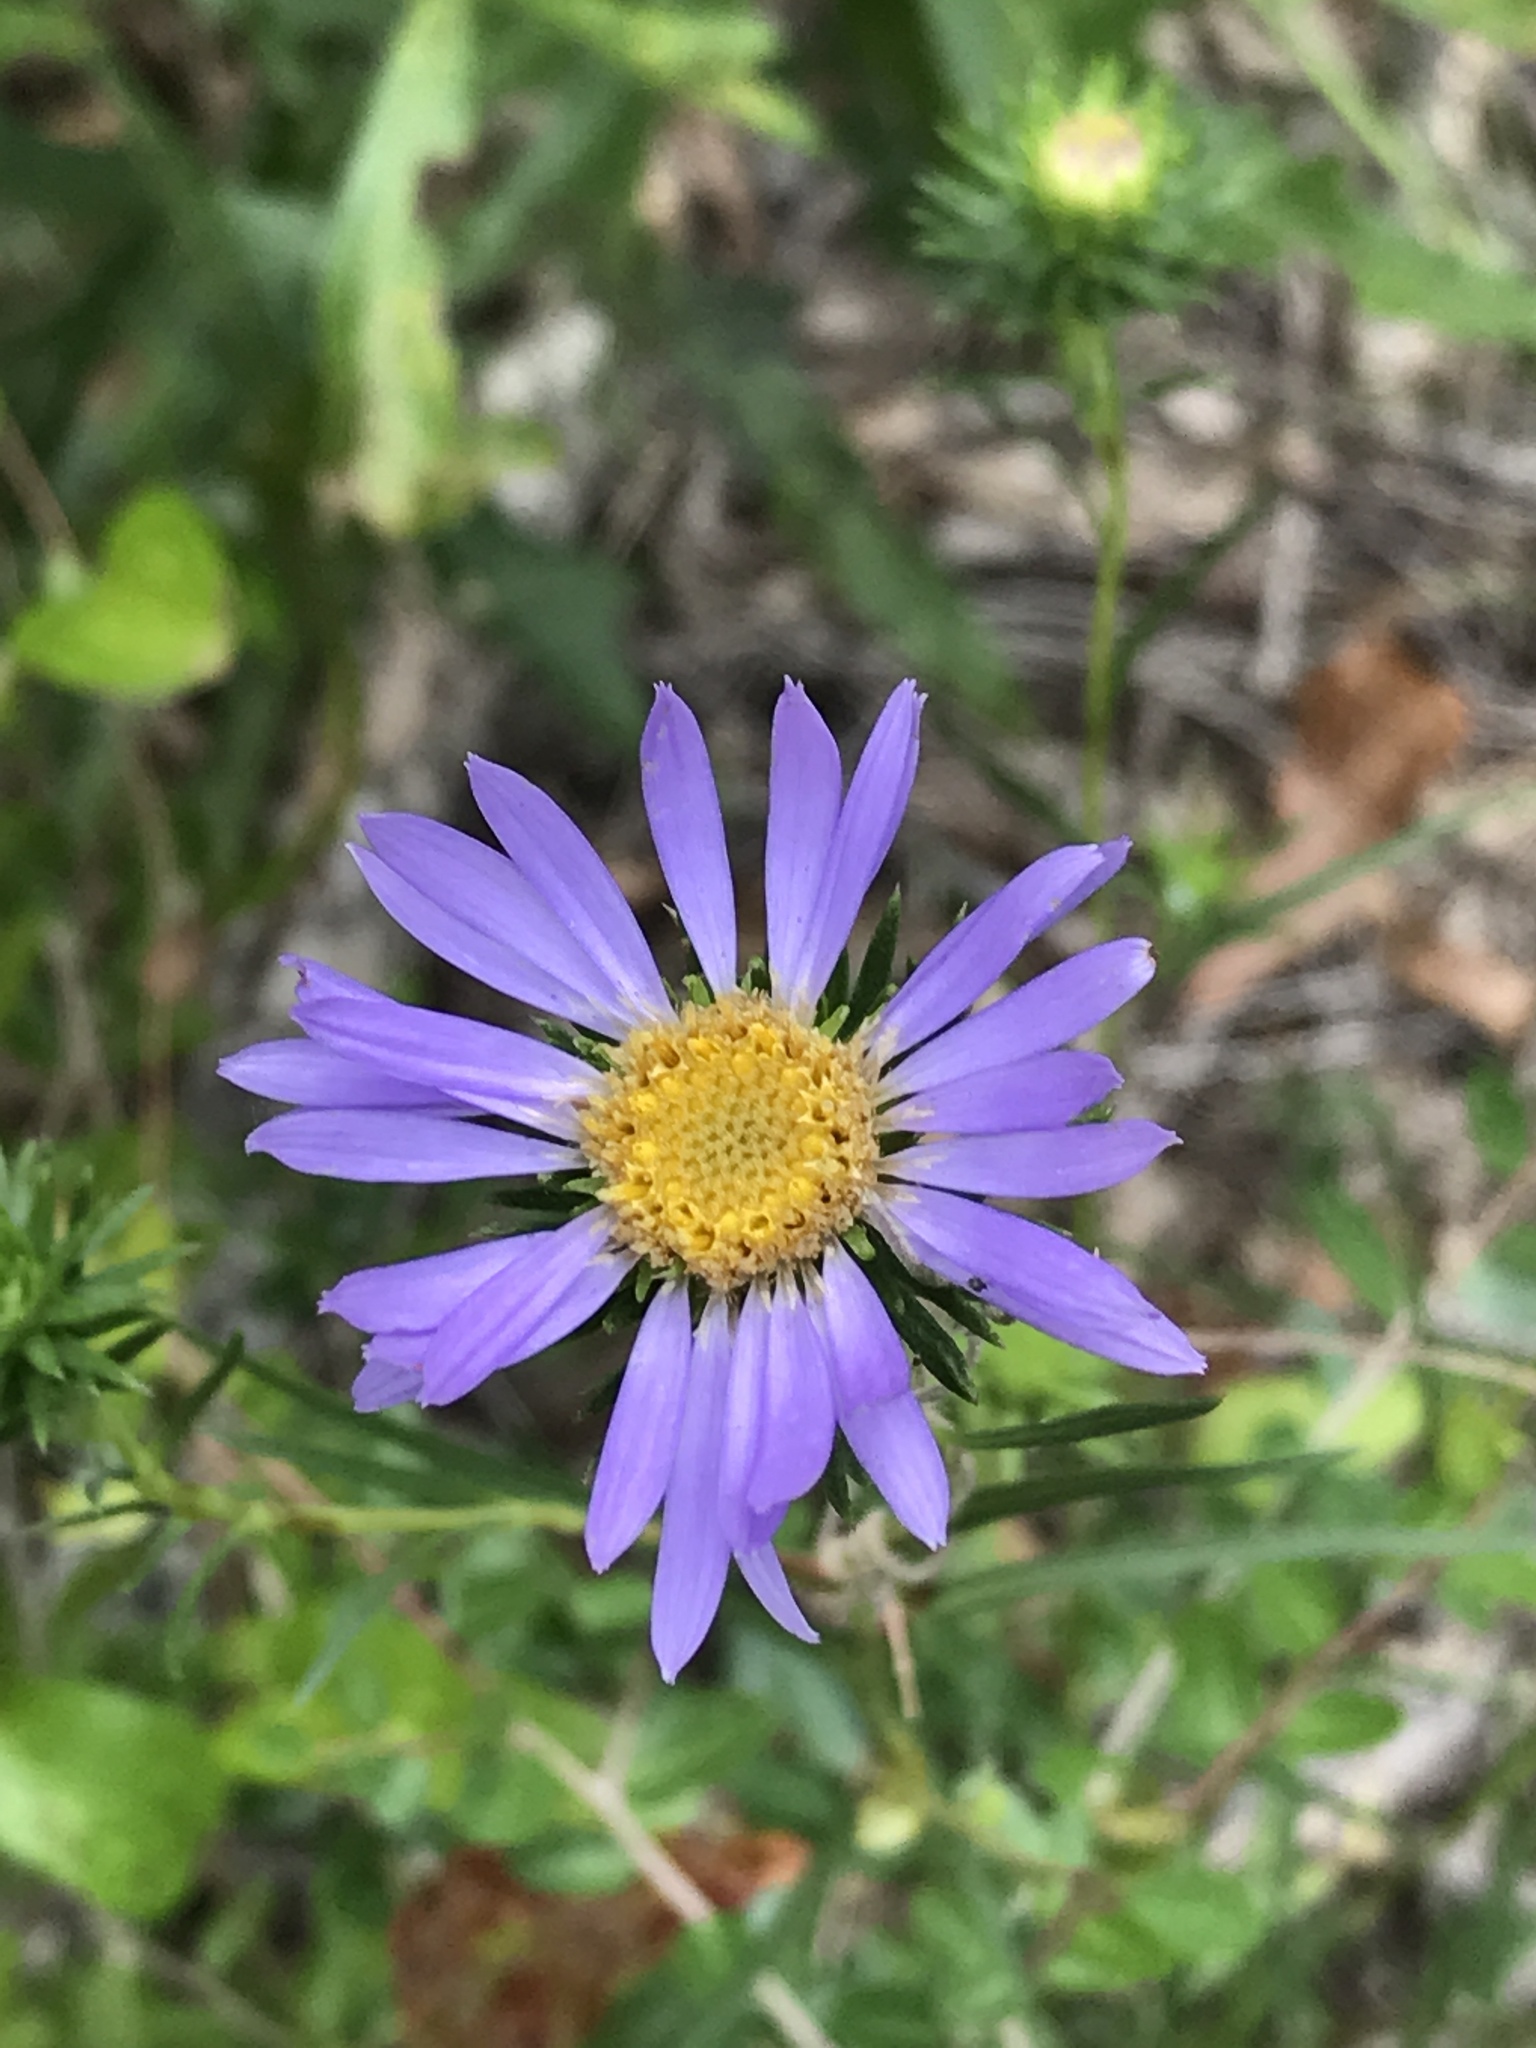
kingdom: Plantae
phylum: Tracheophyta
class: Magnoliopsida
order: Asterales
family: Asteraceae
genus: Eurybia
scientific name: Eurybia hemispherica
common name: Showy aster
